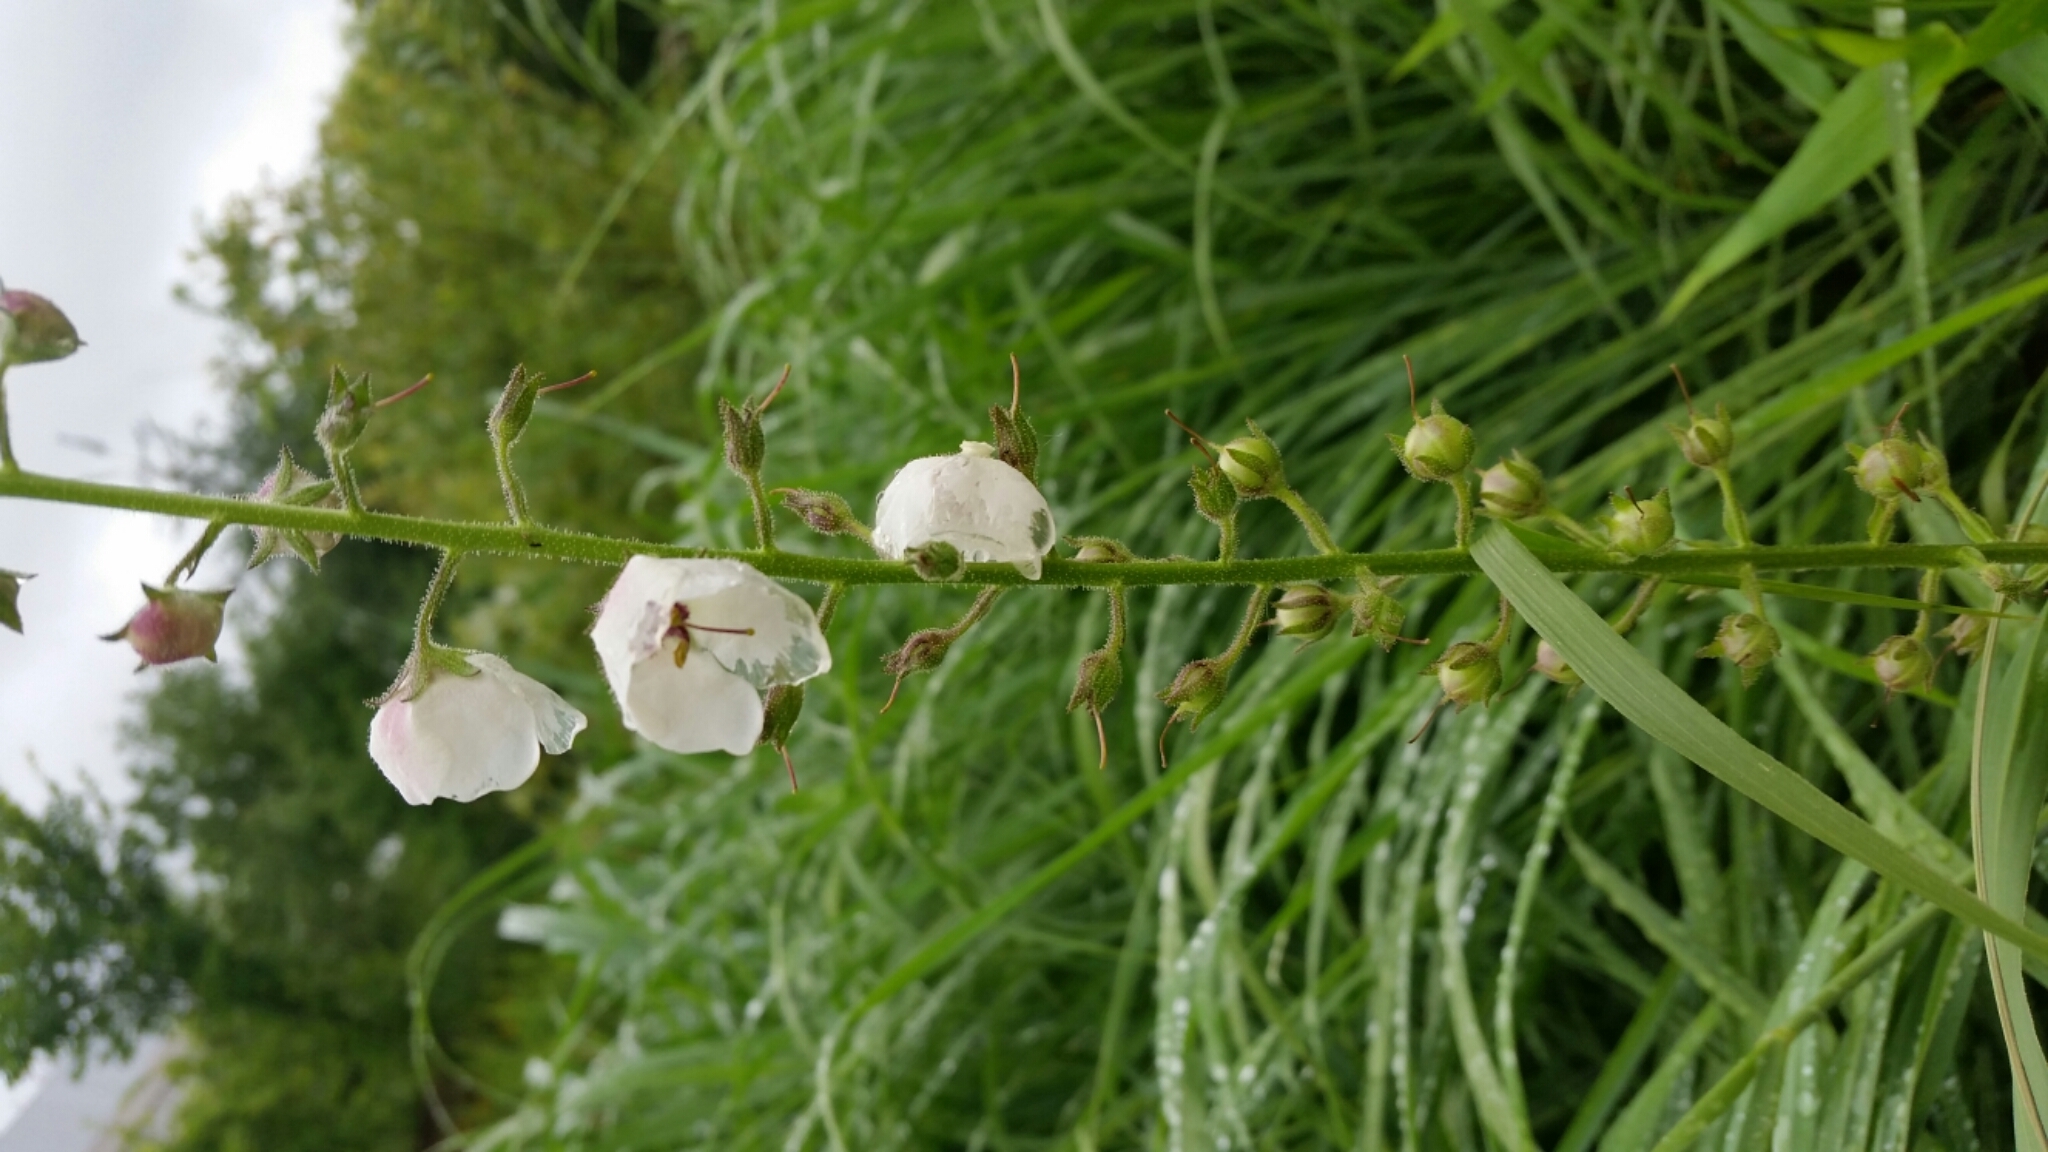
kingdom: Plantae
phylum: Tracheophyta
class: Magnoliopsida
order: Lamiales
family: Scrophulariaceae
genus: Verbascum
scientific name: Verbascum blattaria
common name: Moth mullein
